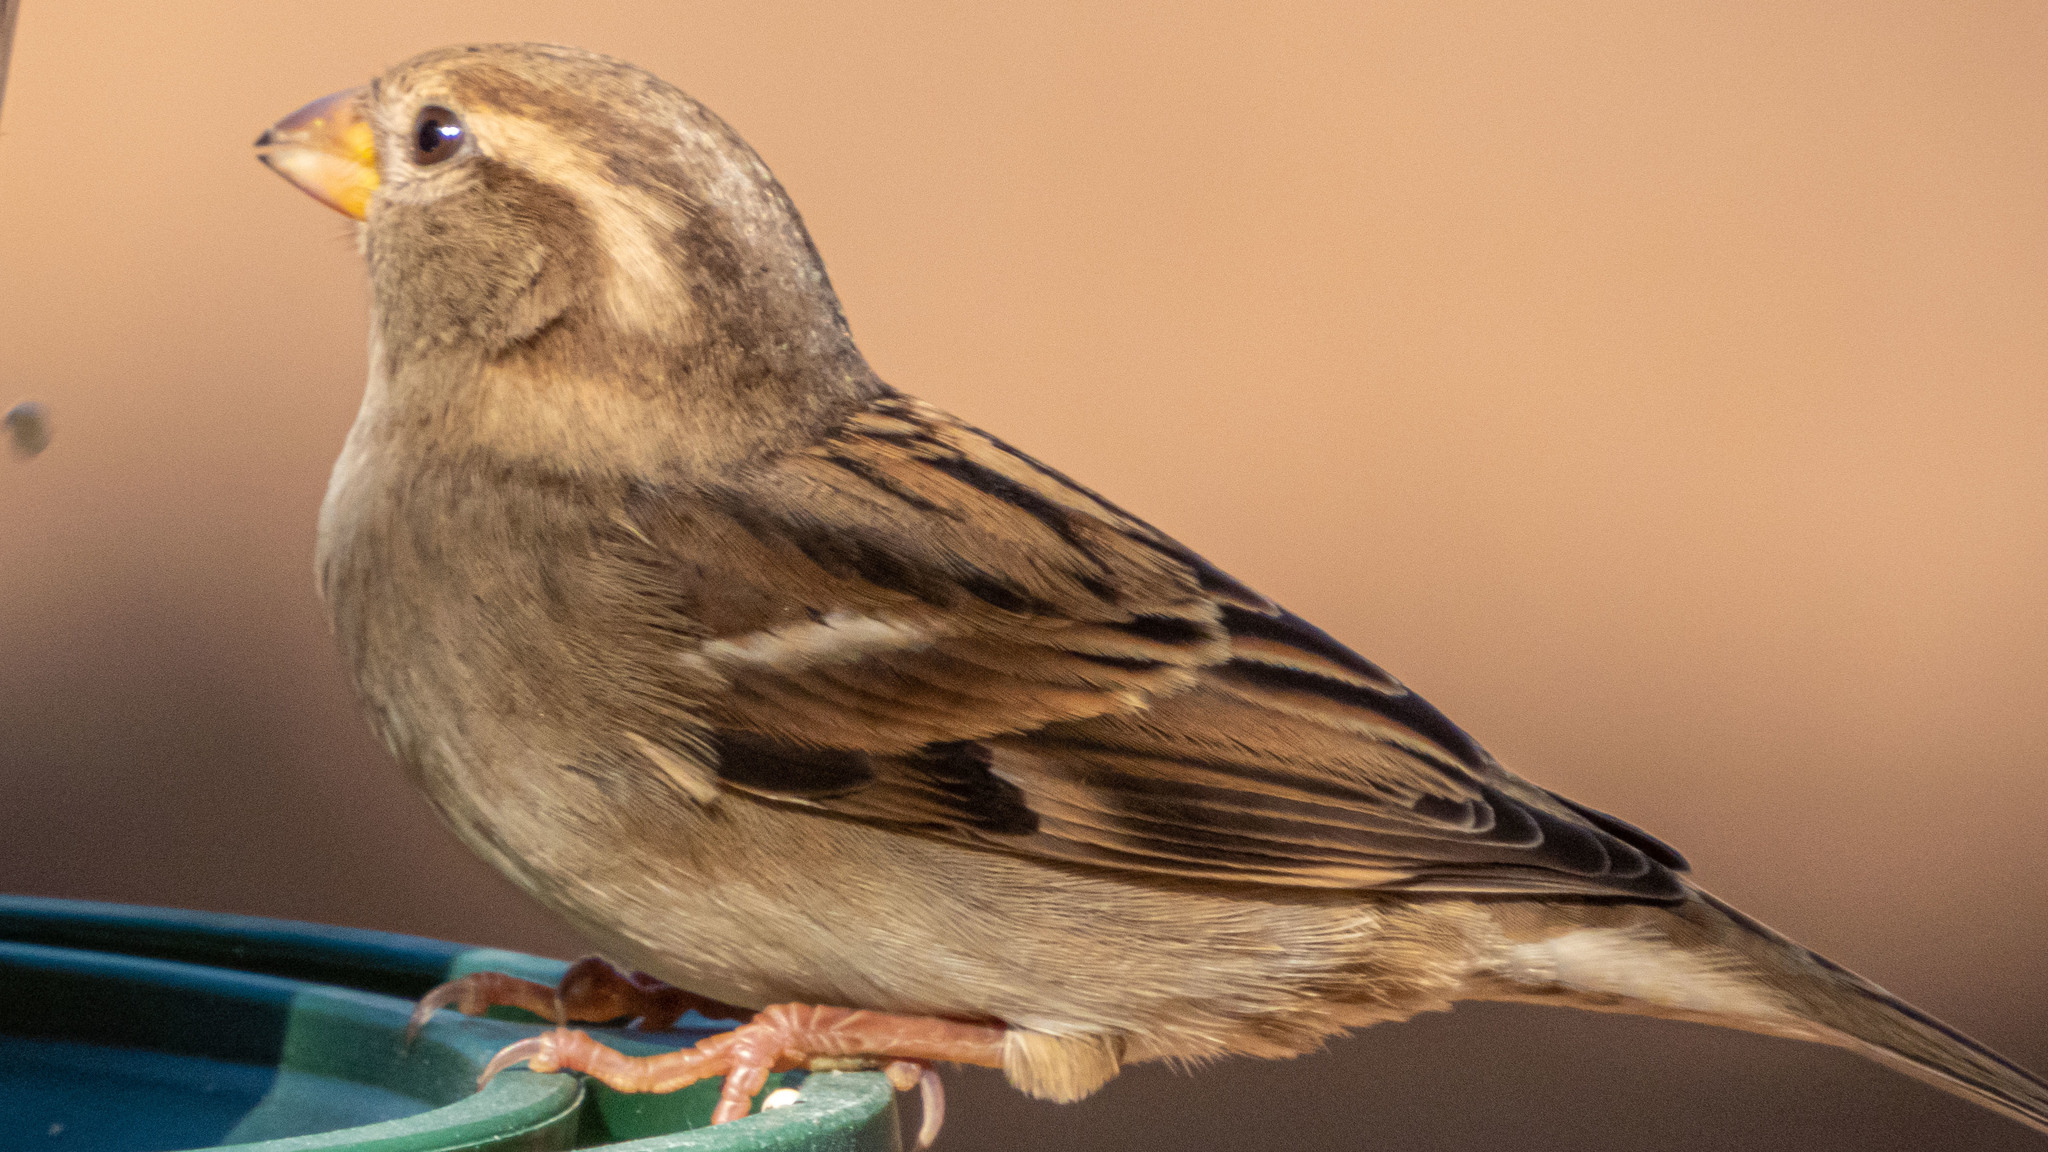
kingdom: Animalia
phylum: Chordata
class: Aves
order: Passeriformes
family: Passeridae
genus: Passer
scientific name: Passer domesticus
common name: House sparrow
